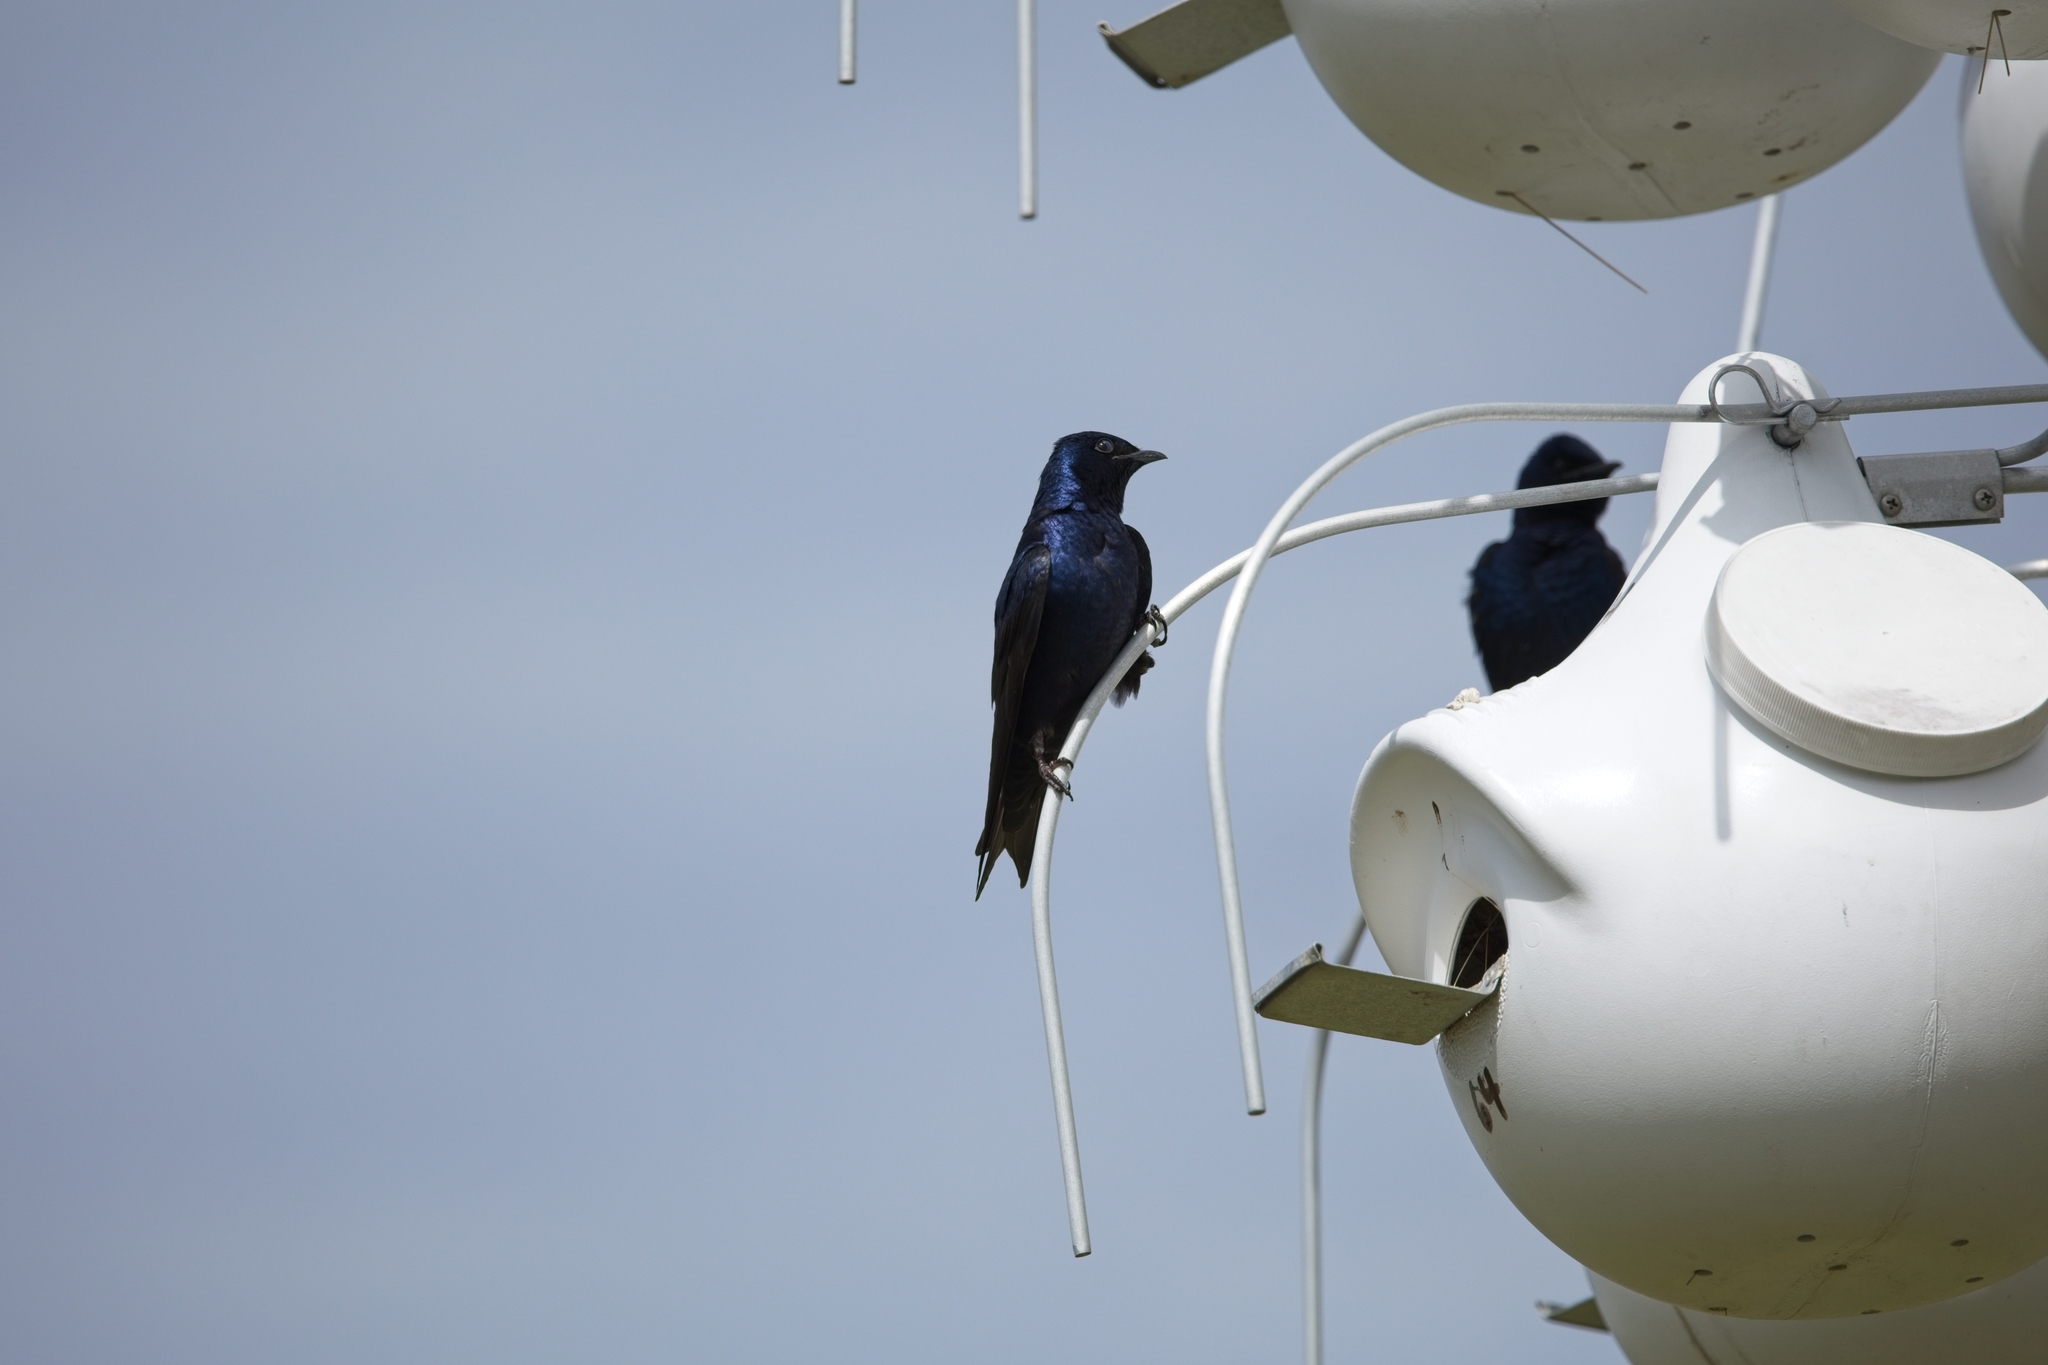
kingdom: Animalia
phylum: Chordata
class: Aves
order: Passeriformes
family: Hirundinidae
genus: Progne
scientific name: Progne subis
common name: Purple martin
